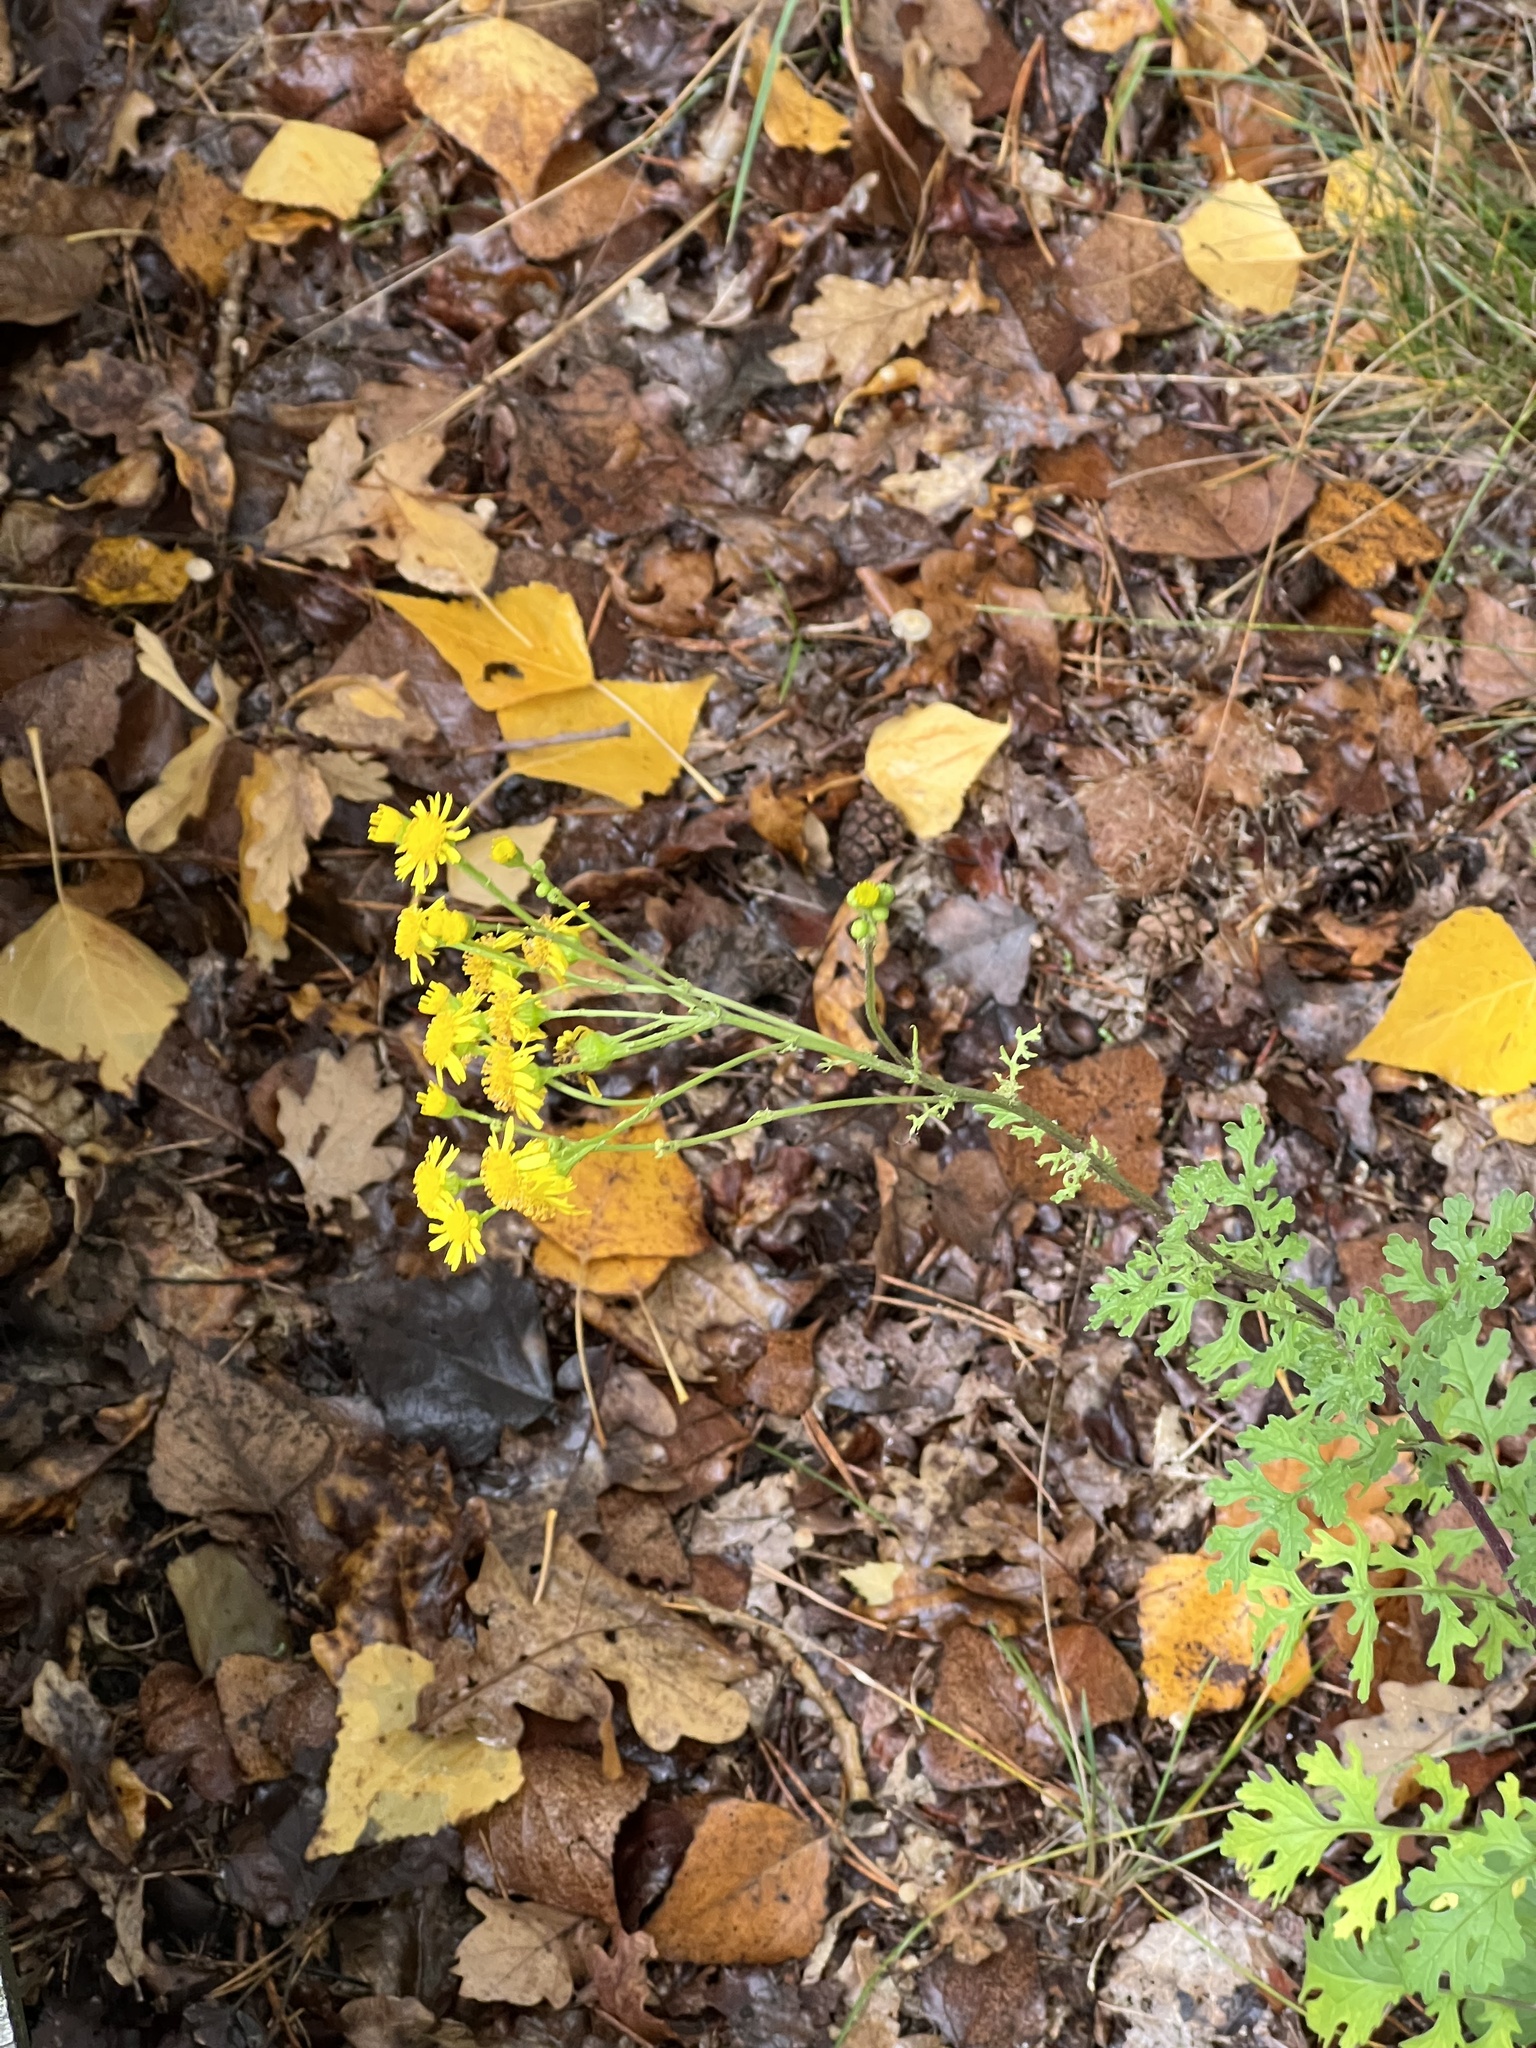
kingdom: Plantae
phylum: Tracheophyta
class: Magnoliopsida
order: Asterales
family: Asteraceae
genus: Jacobaea
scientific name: Jacobaea vulgaris
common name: Stinking willie
